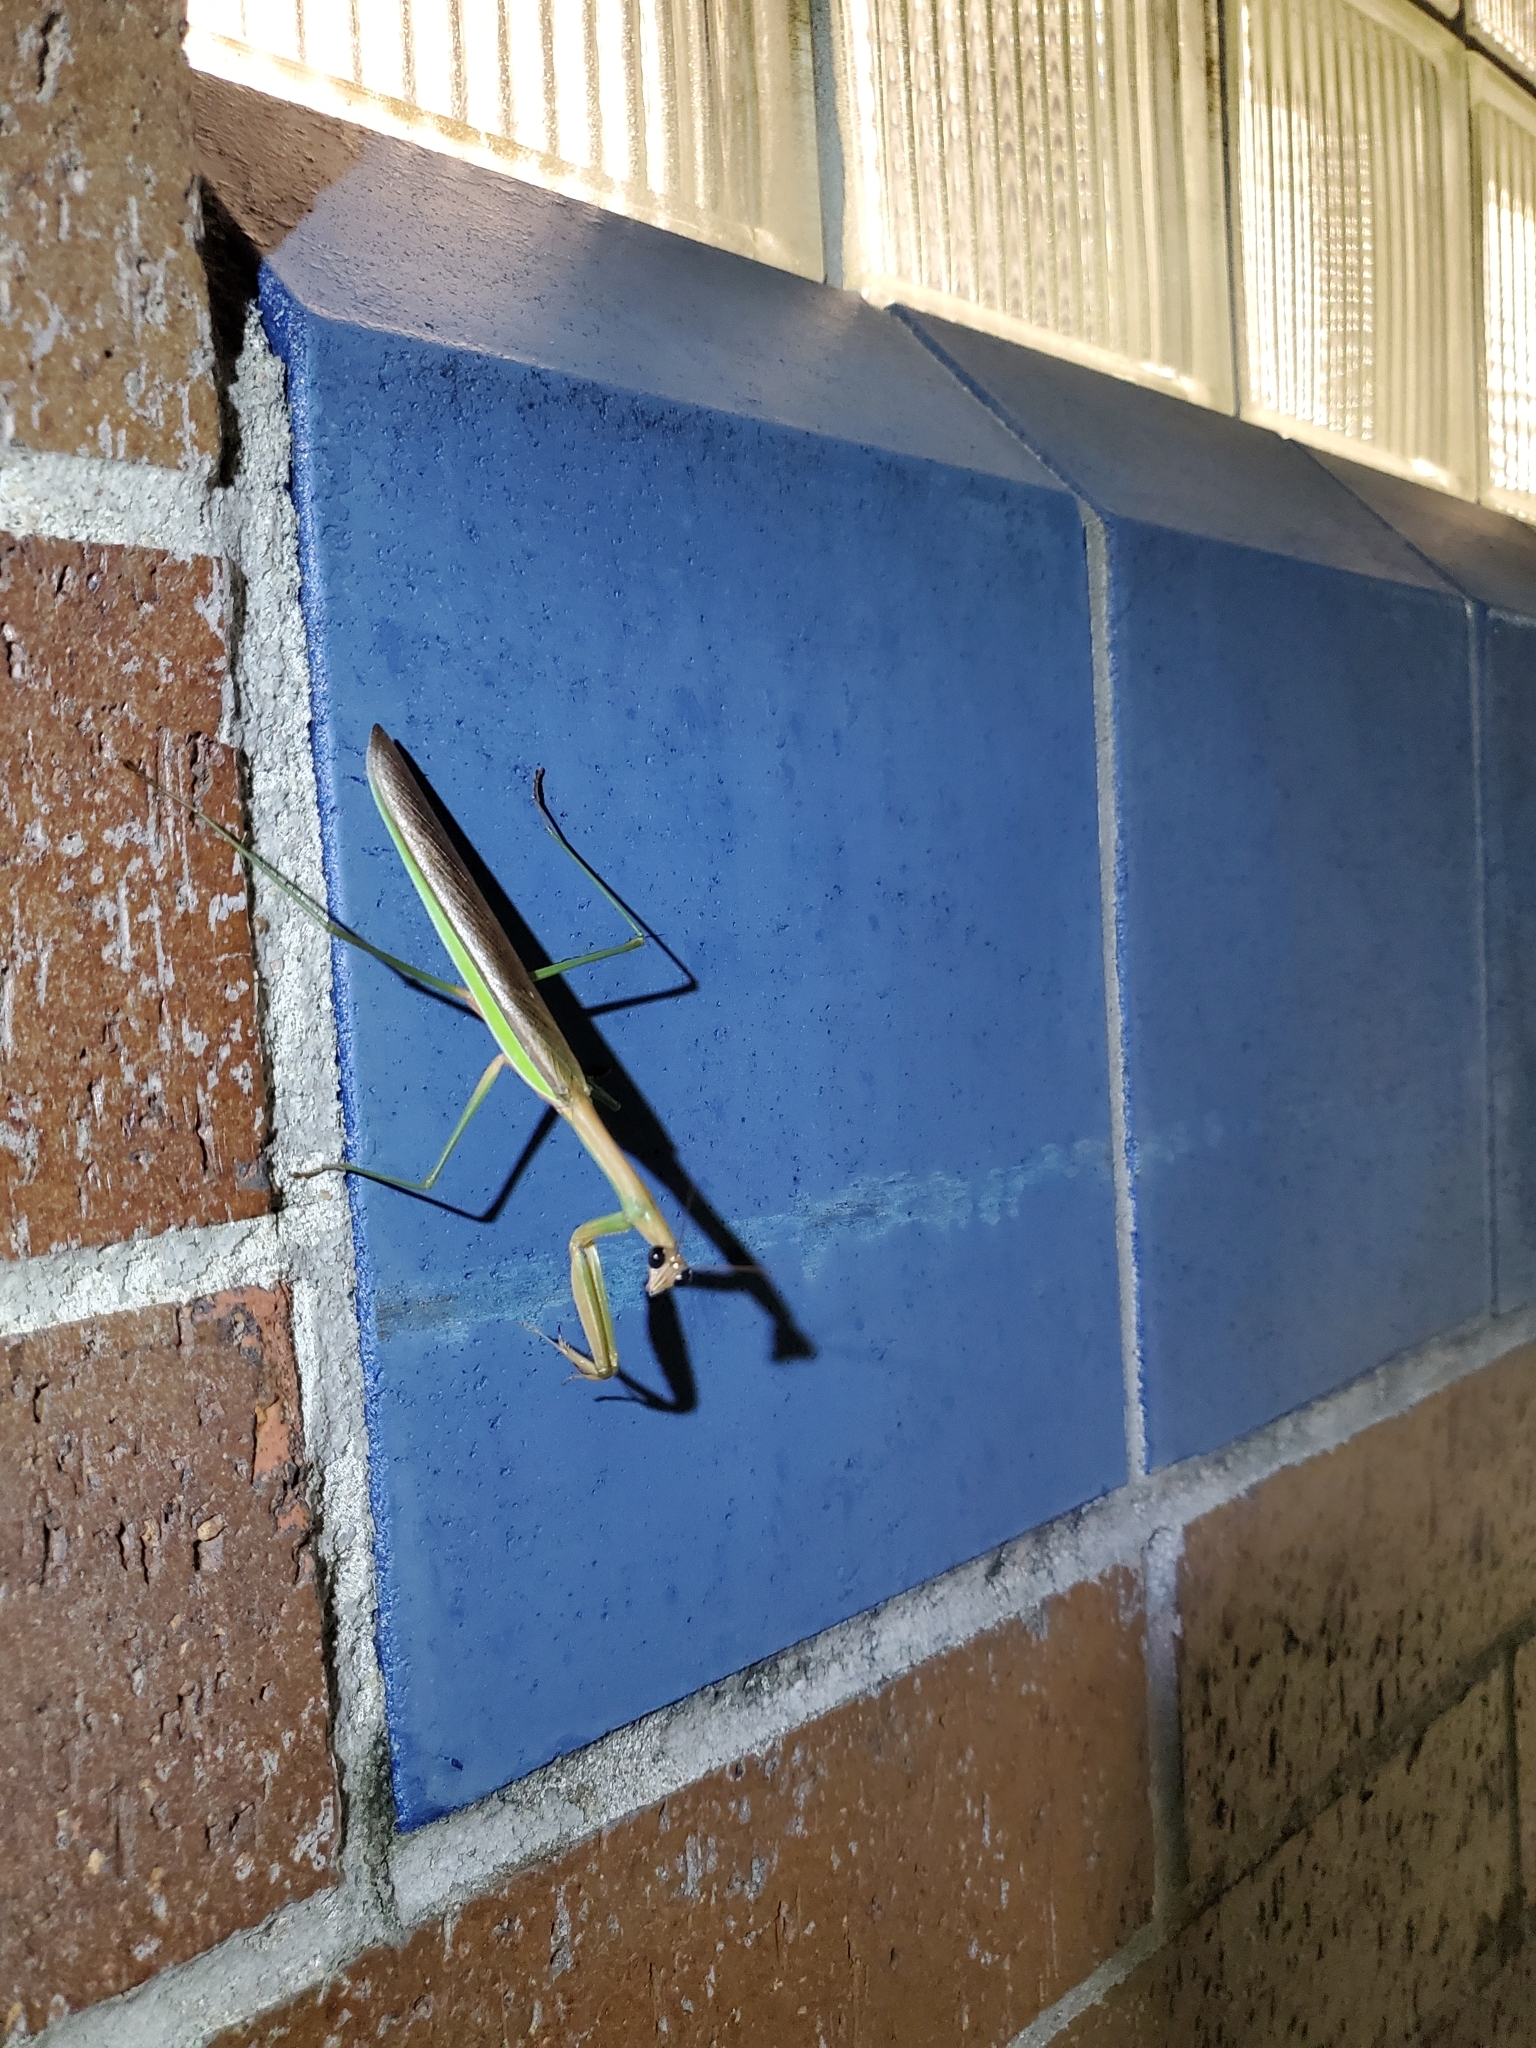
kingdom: Animalia
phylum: Arthropoda
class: Insecta
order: Mantodea
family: Mantidae
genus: Tenodera
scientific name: Tenodera sinensis
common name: Chinese mantis
